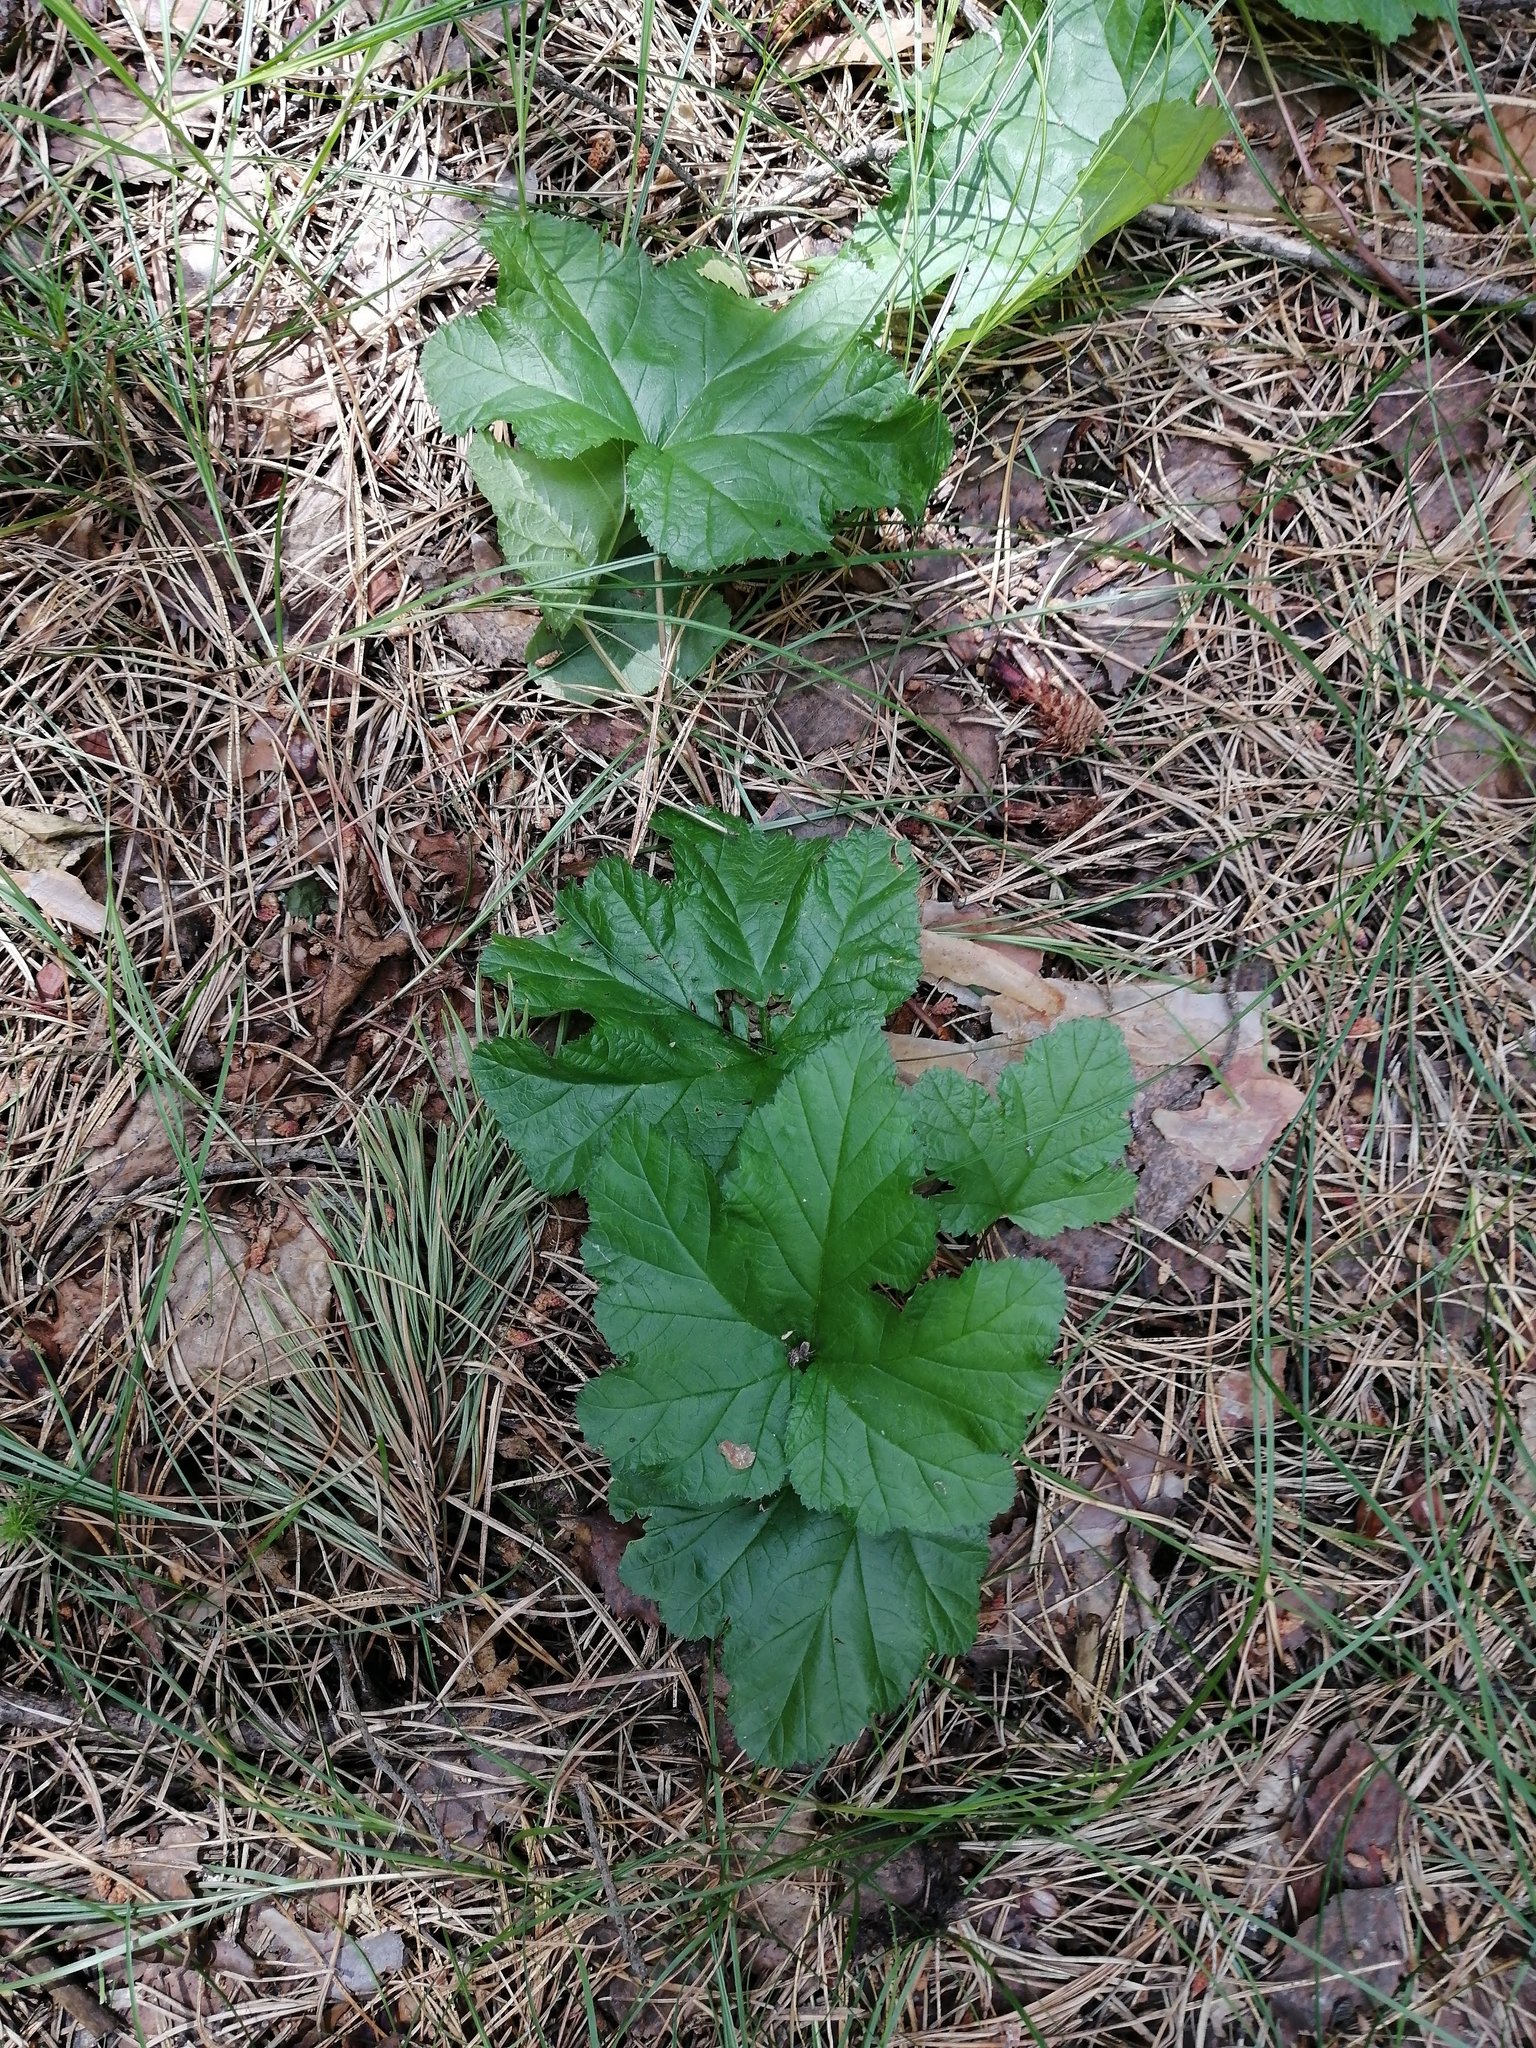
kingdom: Plantae
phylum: Tracheophyta
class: Magnoliopsida
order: Rosales
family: Rosaceae
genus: Rubus
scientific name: Rubus chamaemorus
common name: Cloudberry
